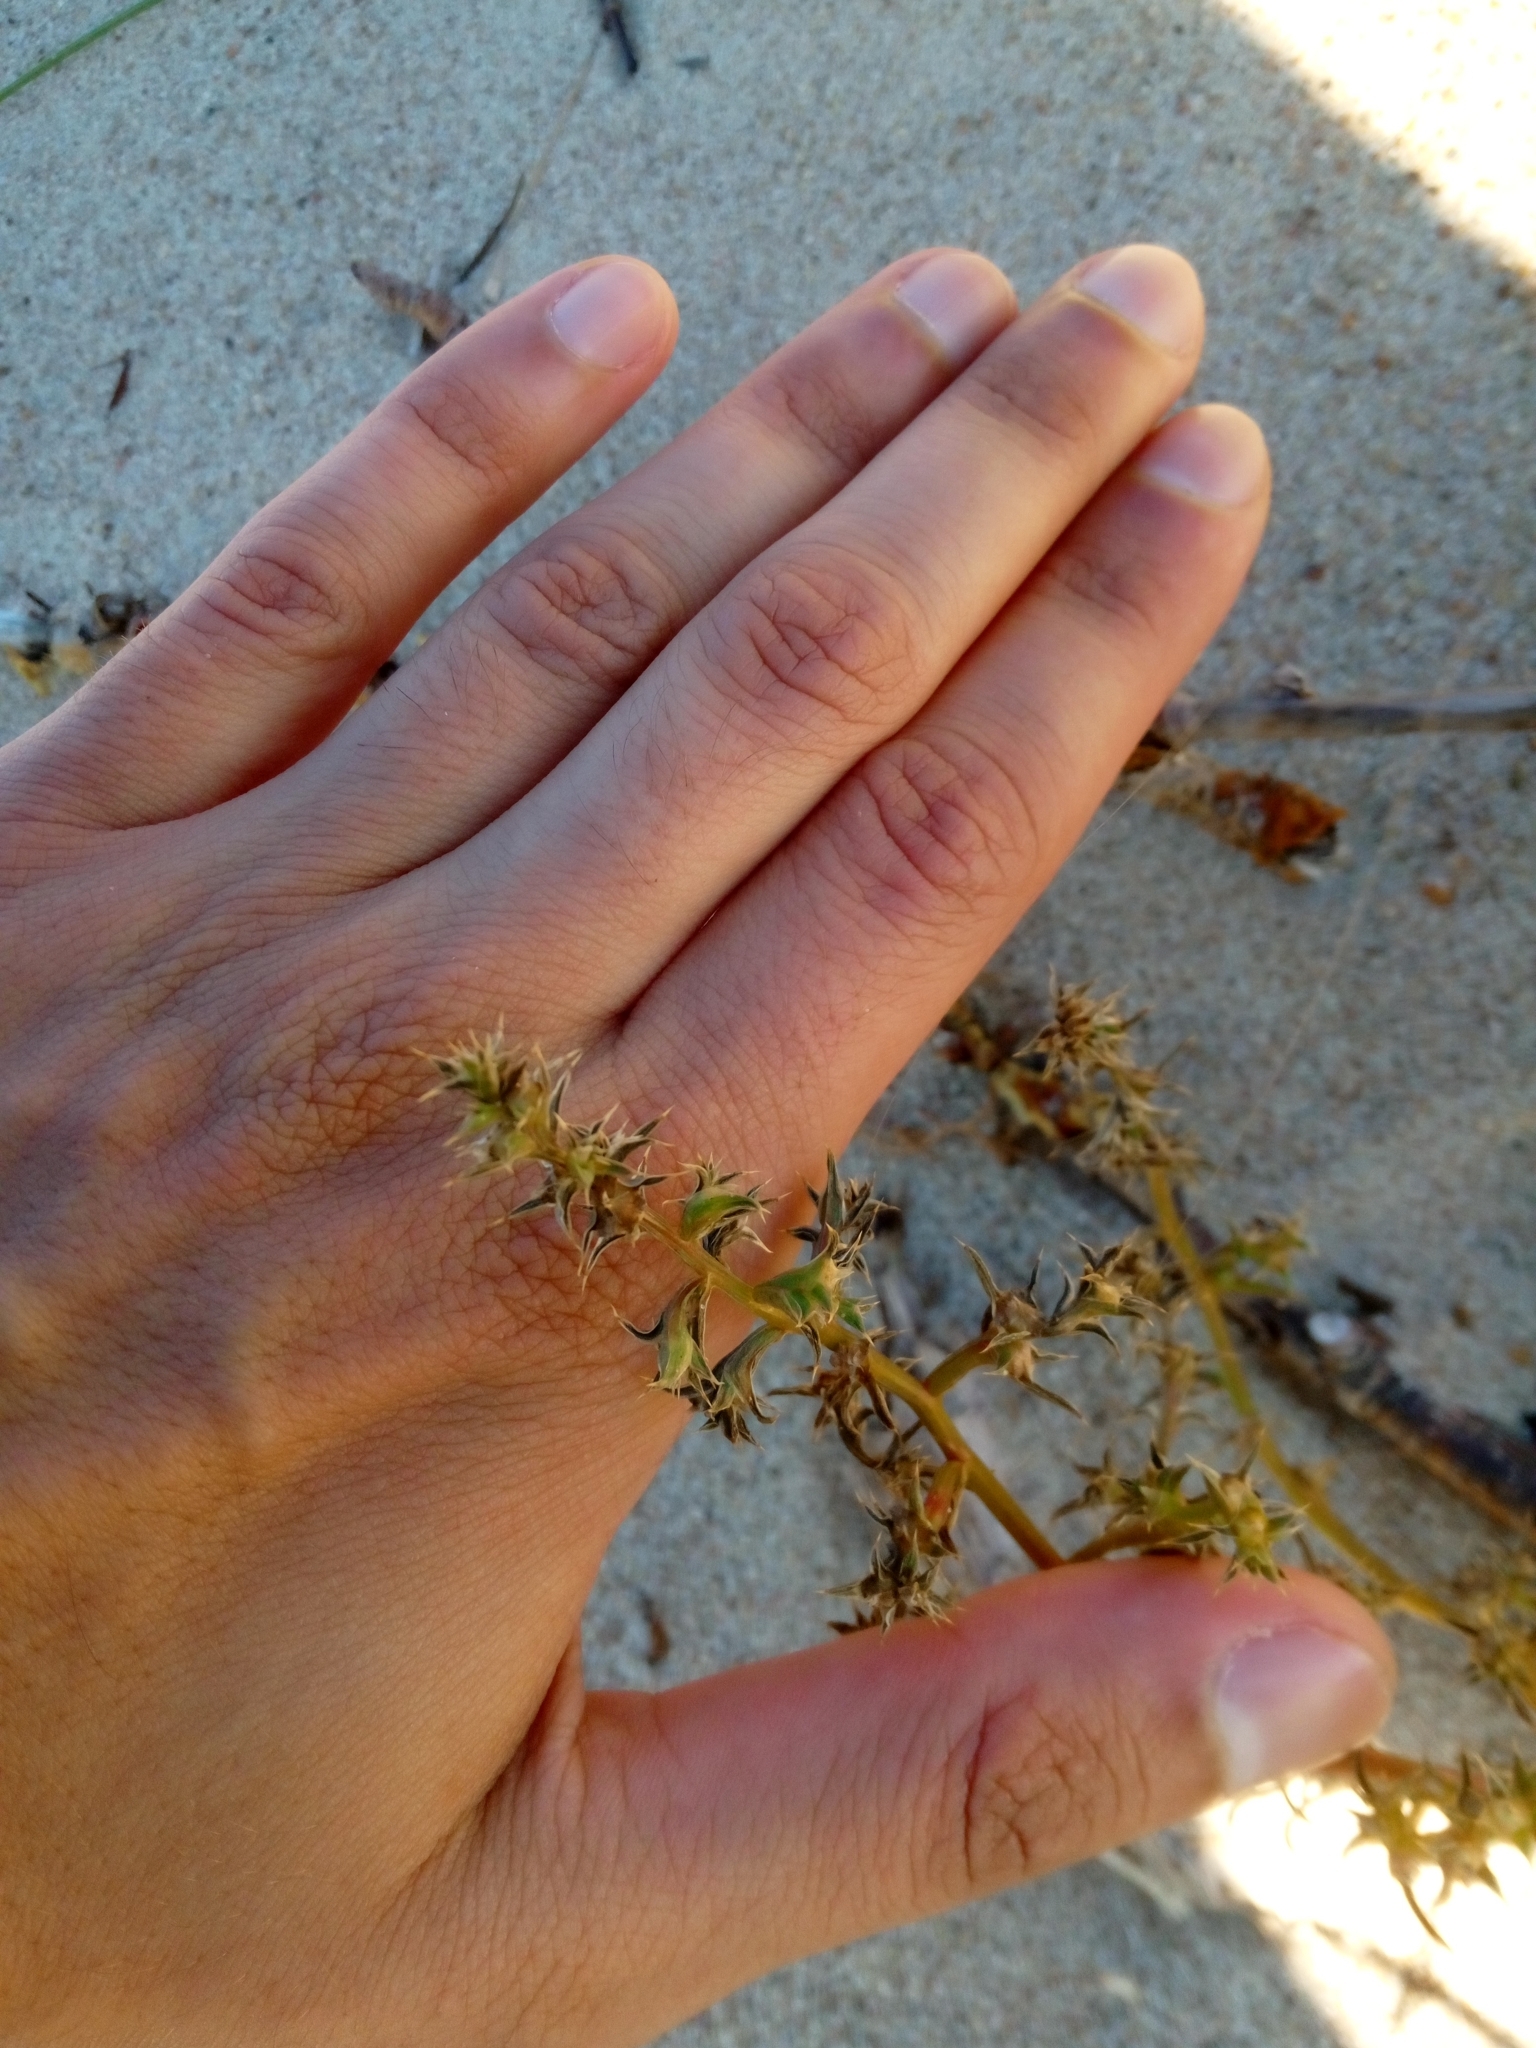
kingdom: Plantae
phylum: Tracheophyta
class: Magnoliopsida
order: Caryophyllales
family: Amaranthaceae
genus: Salsola
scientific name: Salsola kali
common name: Saltwort
